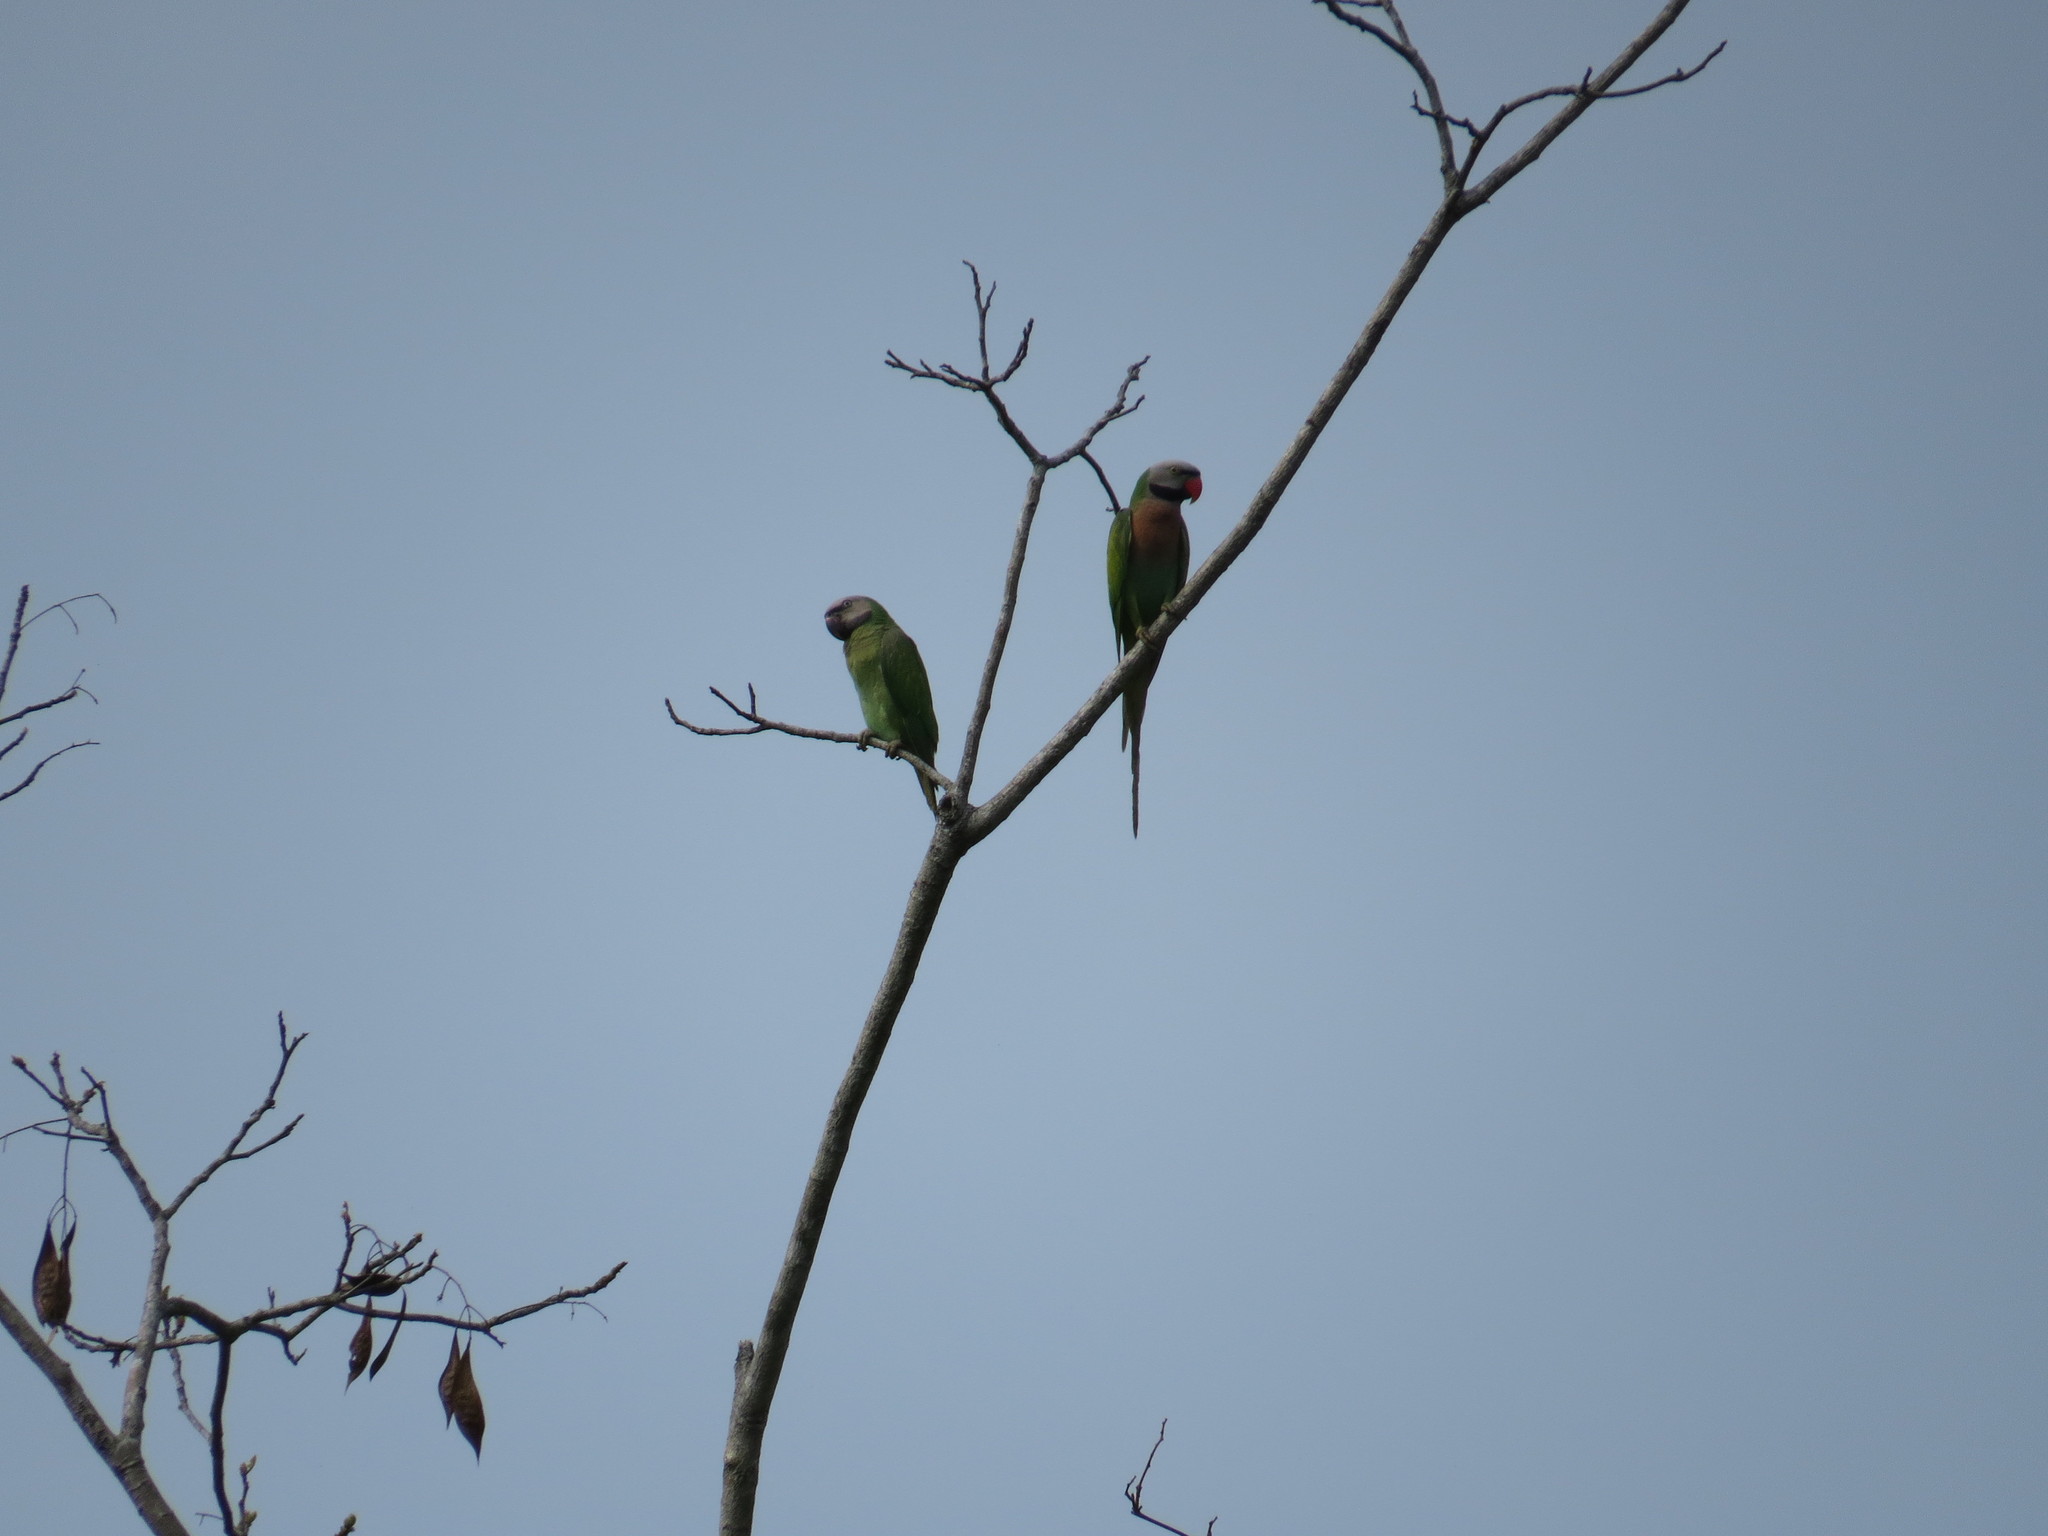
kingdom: Animalia
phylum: Chordata
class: Aves
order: Psittaciformes
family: Psittacidae
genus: Psittacula
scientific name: Psittacula alexandri
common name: Red-breasted parakeet
